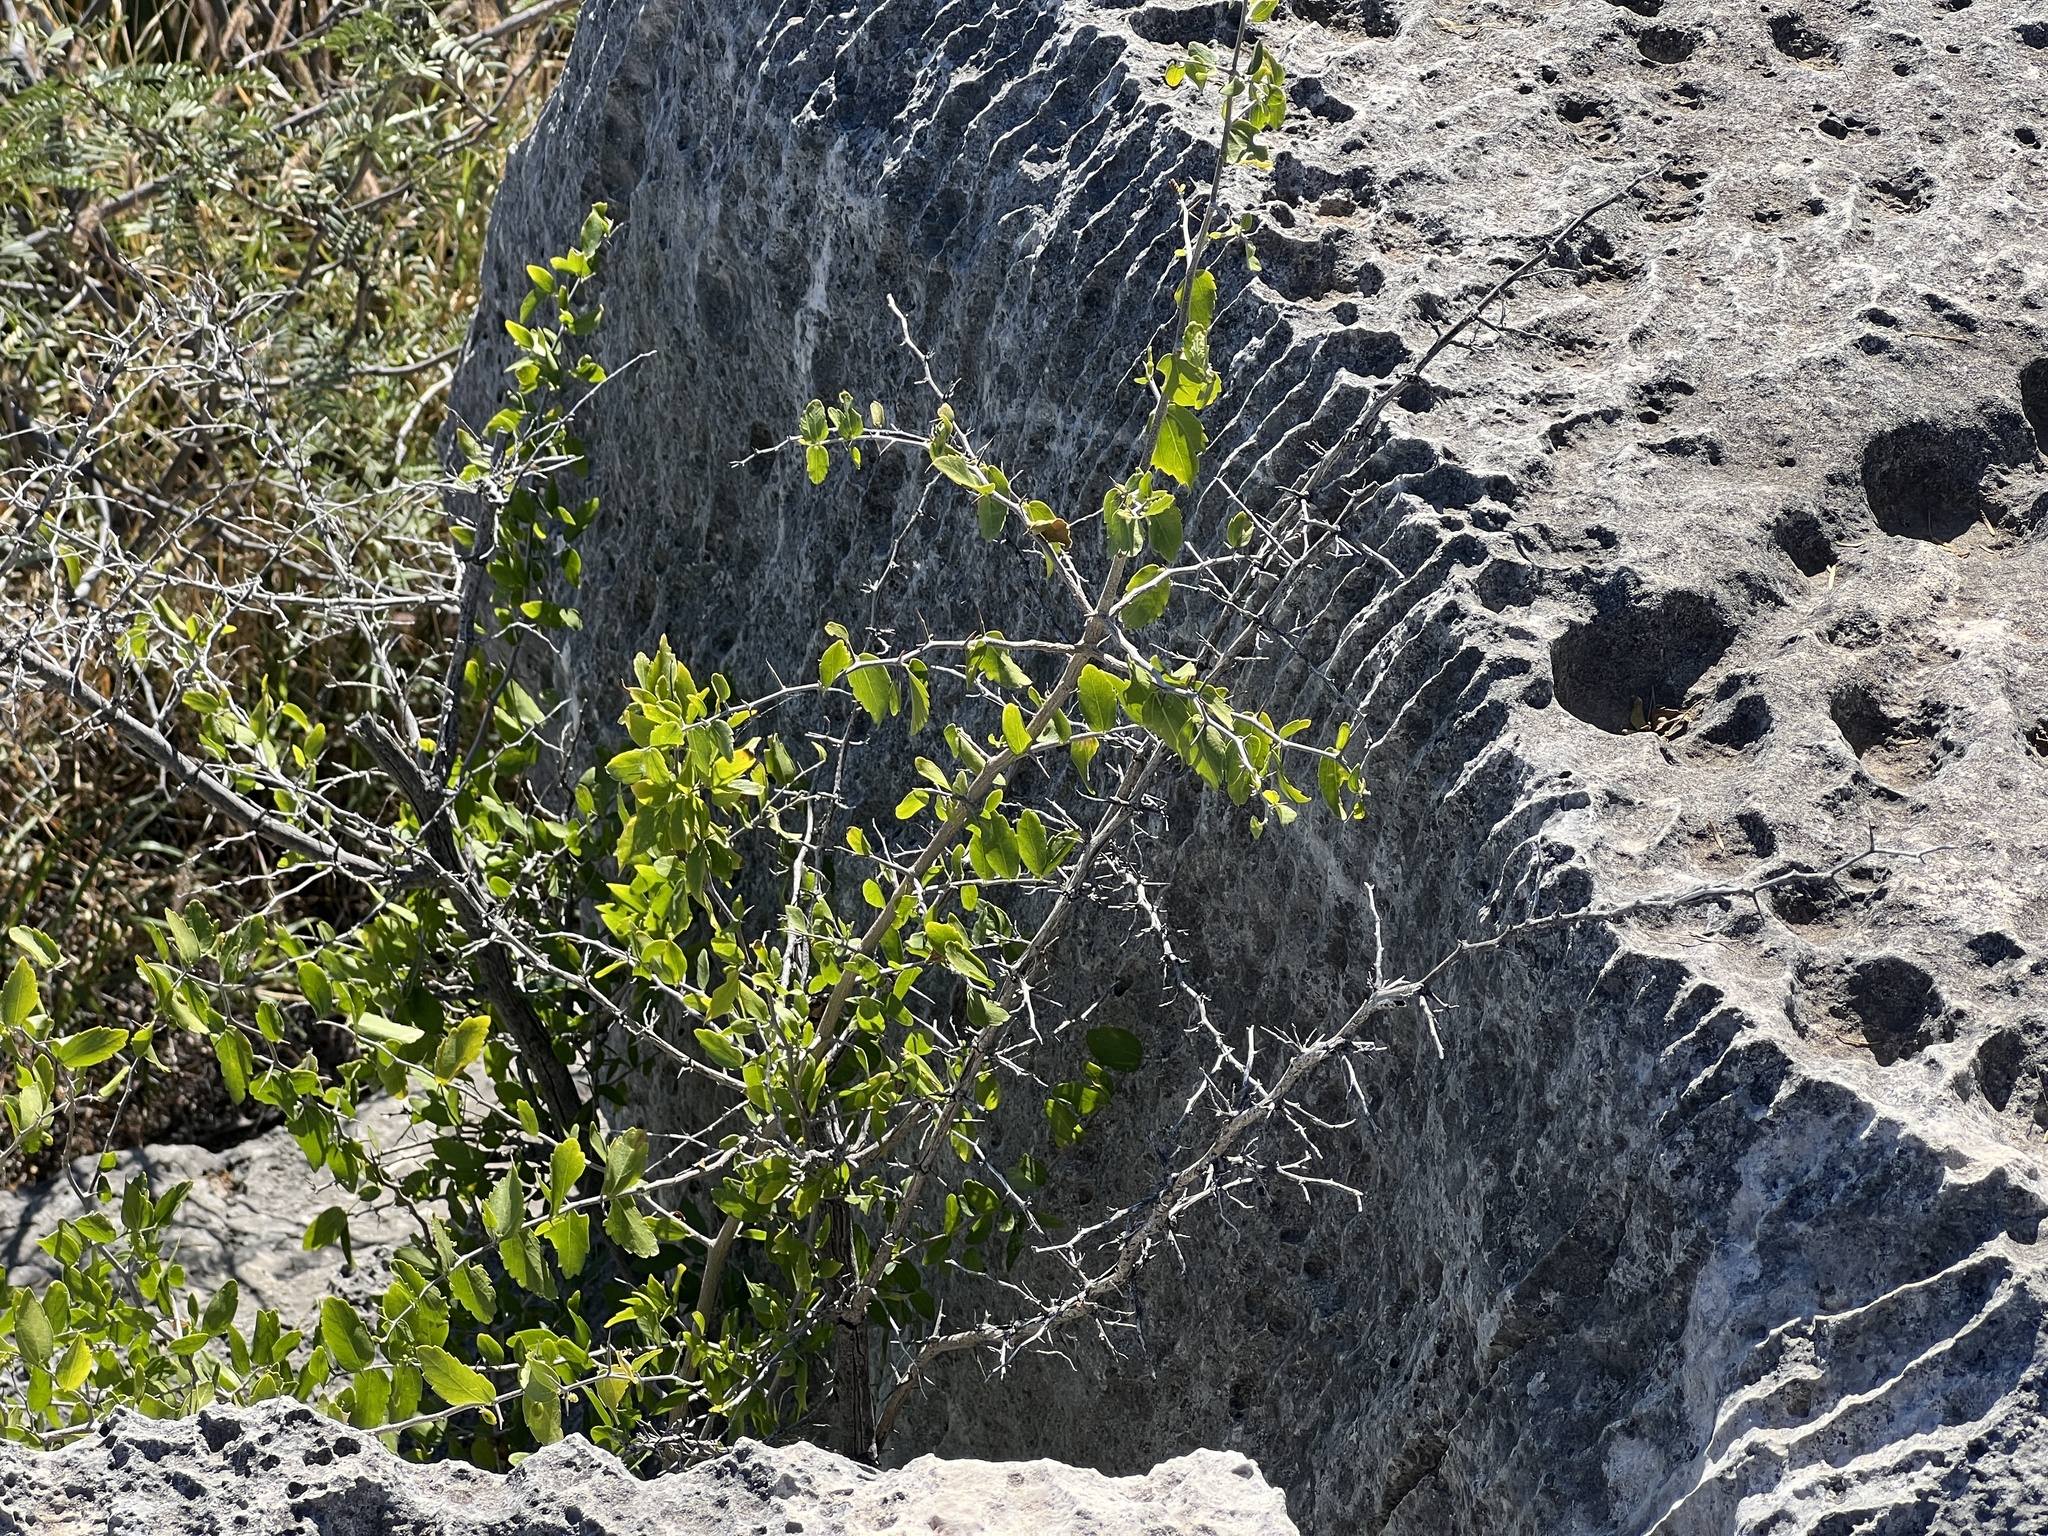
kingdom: Plantae
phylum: Tracheophyta
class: Magnoliopsida
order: Rosales
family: Cannabaceae
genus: Celtis
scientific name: Celtis pallida
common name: Desert hackberry
